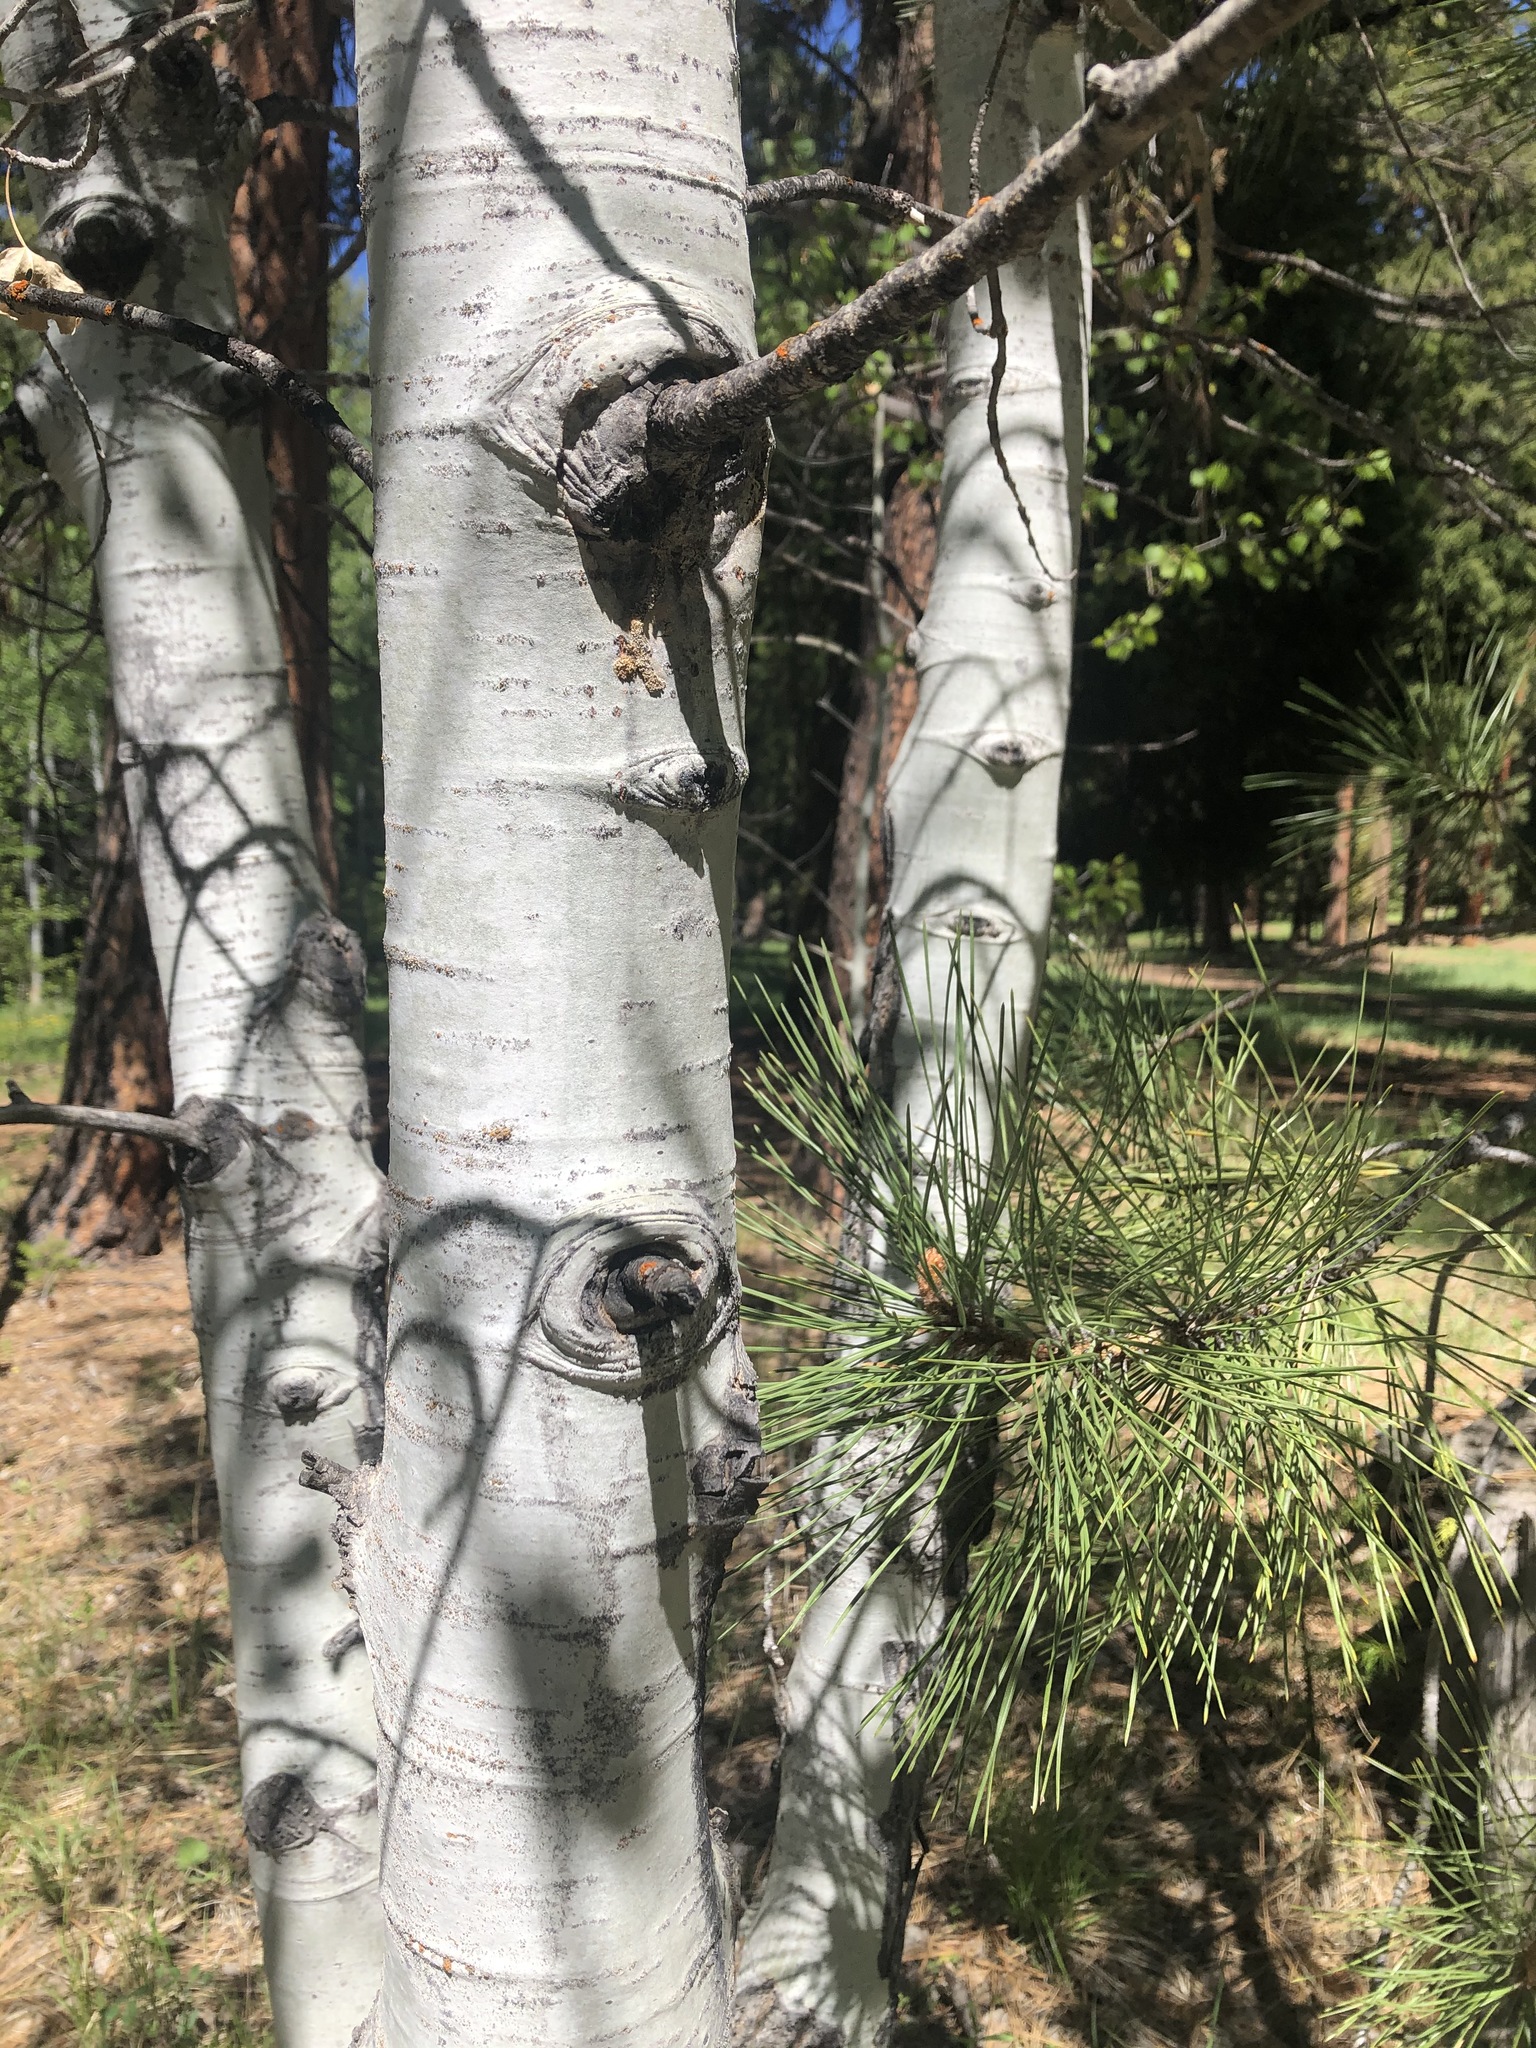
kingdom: Plantae
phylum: Tracheophyta
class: Magnoliopsida
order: Malpighiales
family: Salicaceae
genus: Populus
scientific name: Populus tremuloides
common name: Quaking aspen
